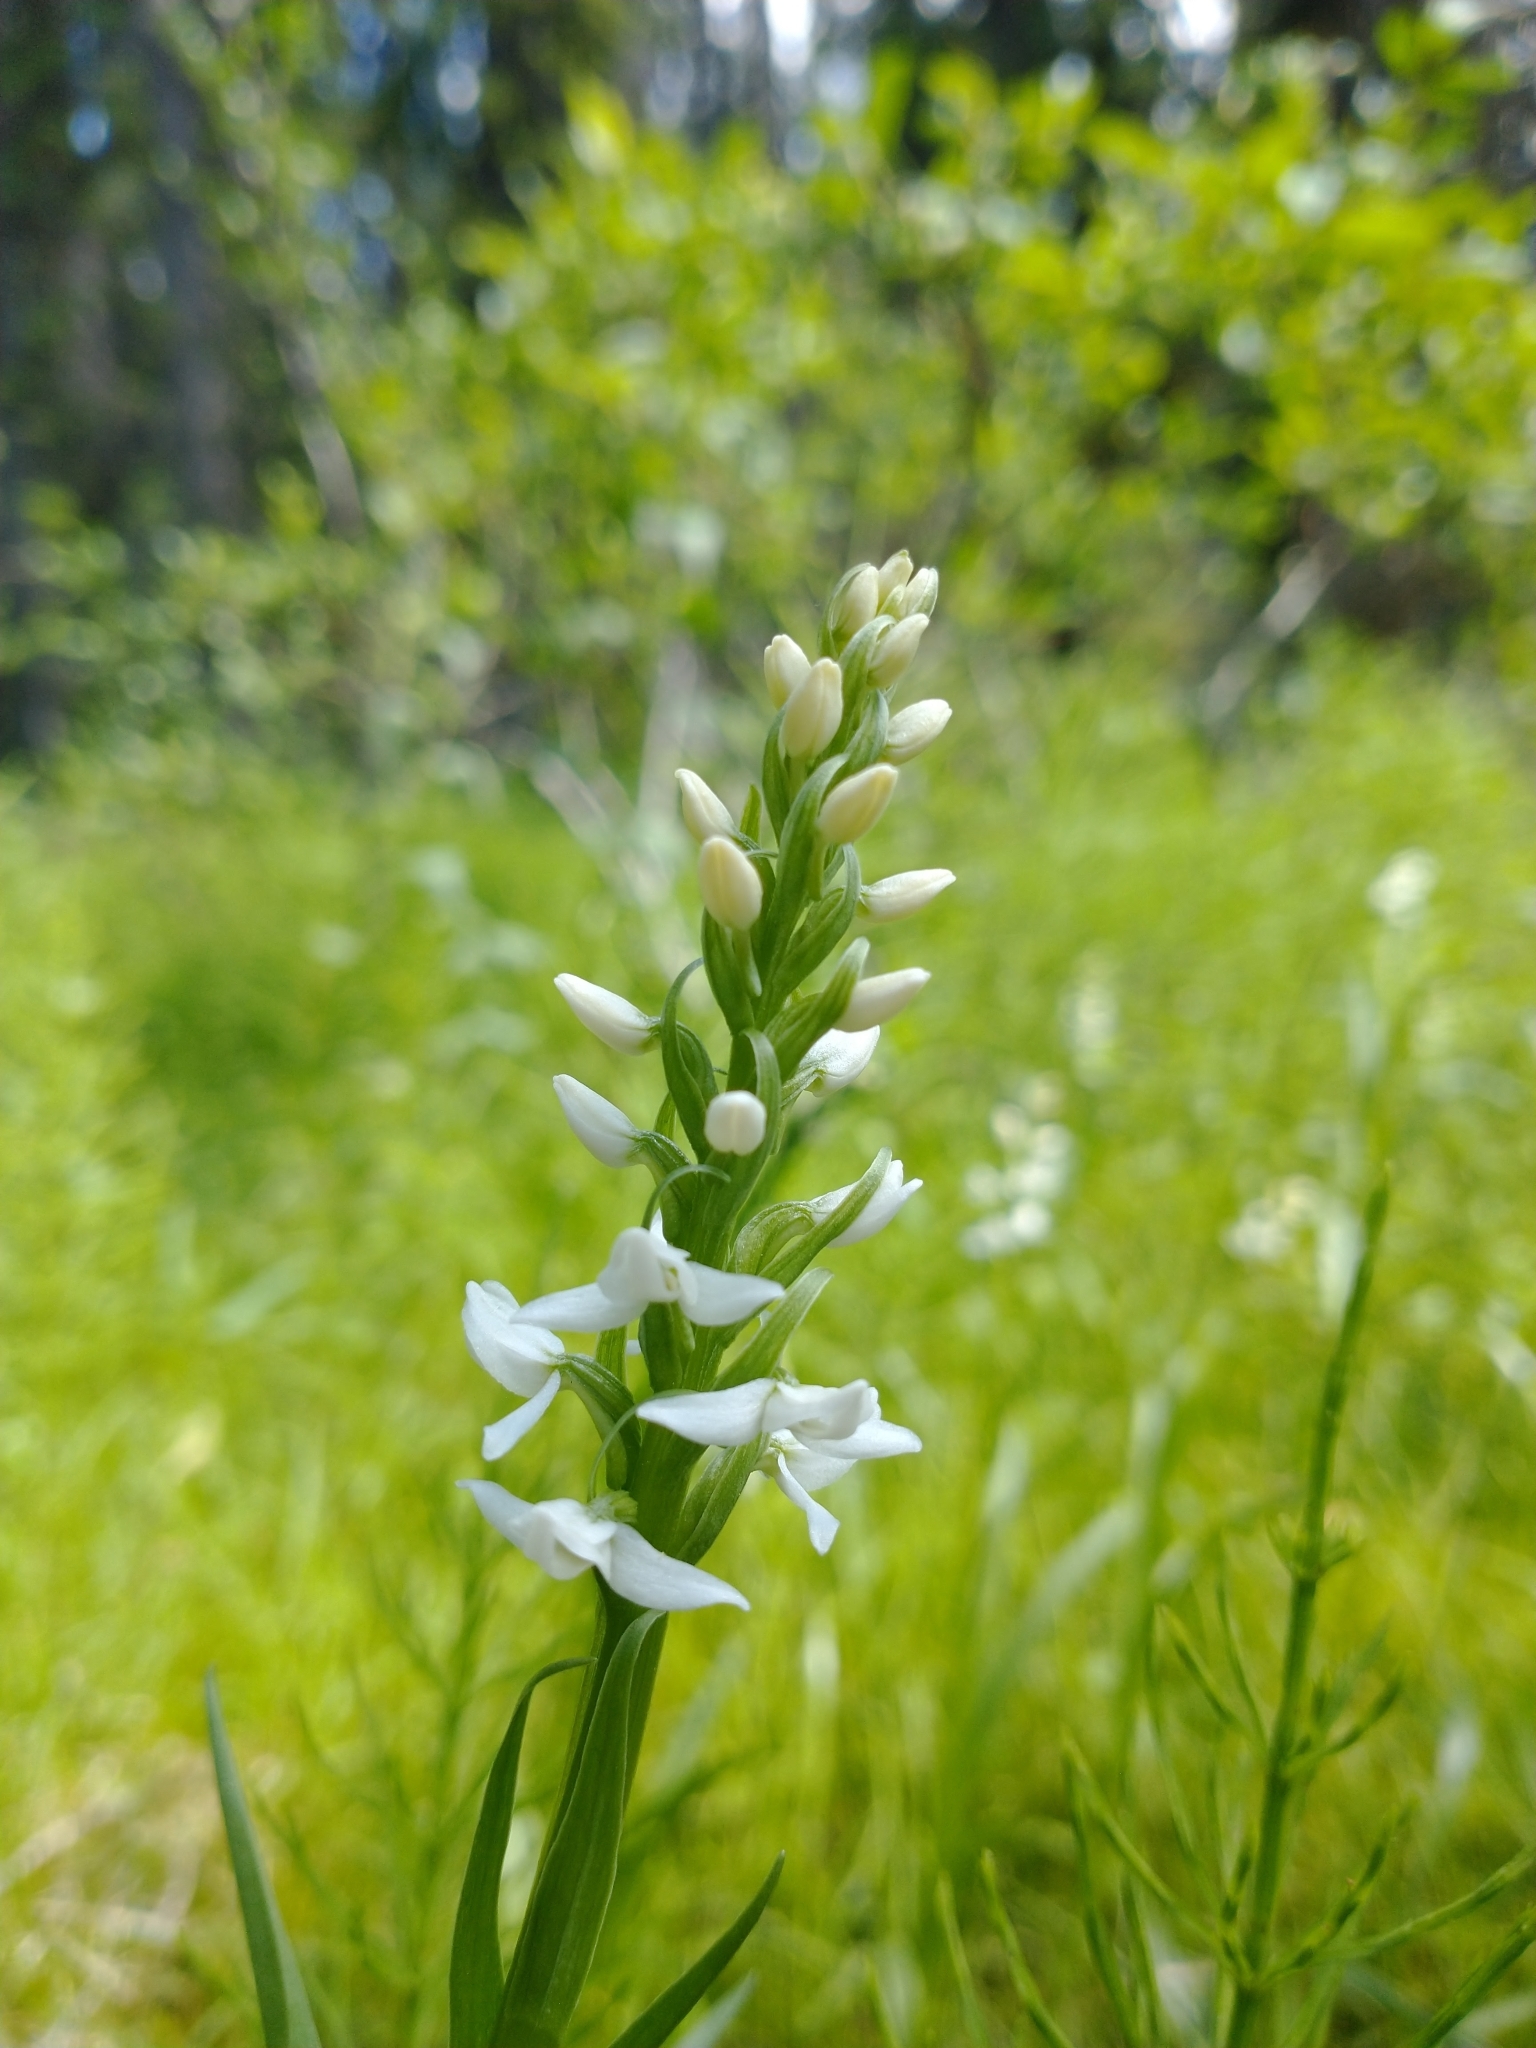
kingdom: Plantae
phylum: Tracheophyta
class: Liliopsida
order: Asparagales
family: Orchidaceae
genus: Platanthera
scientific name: Platanthera dilatata
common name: Bog candles
